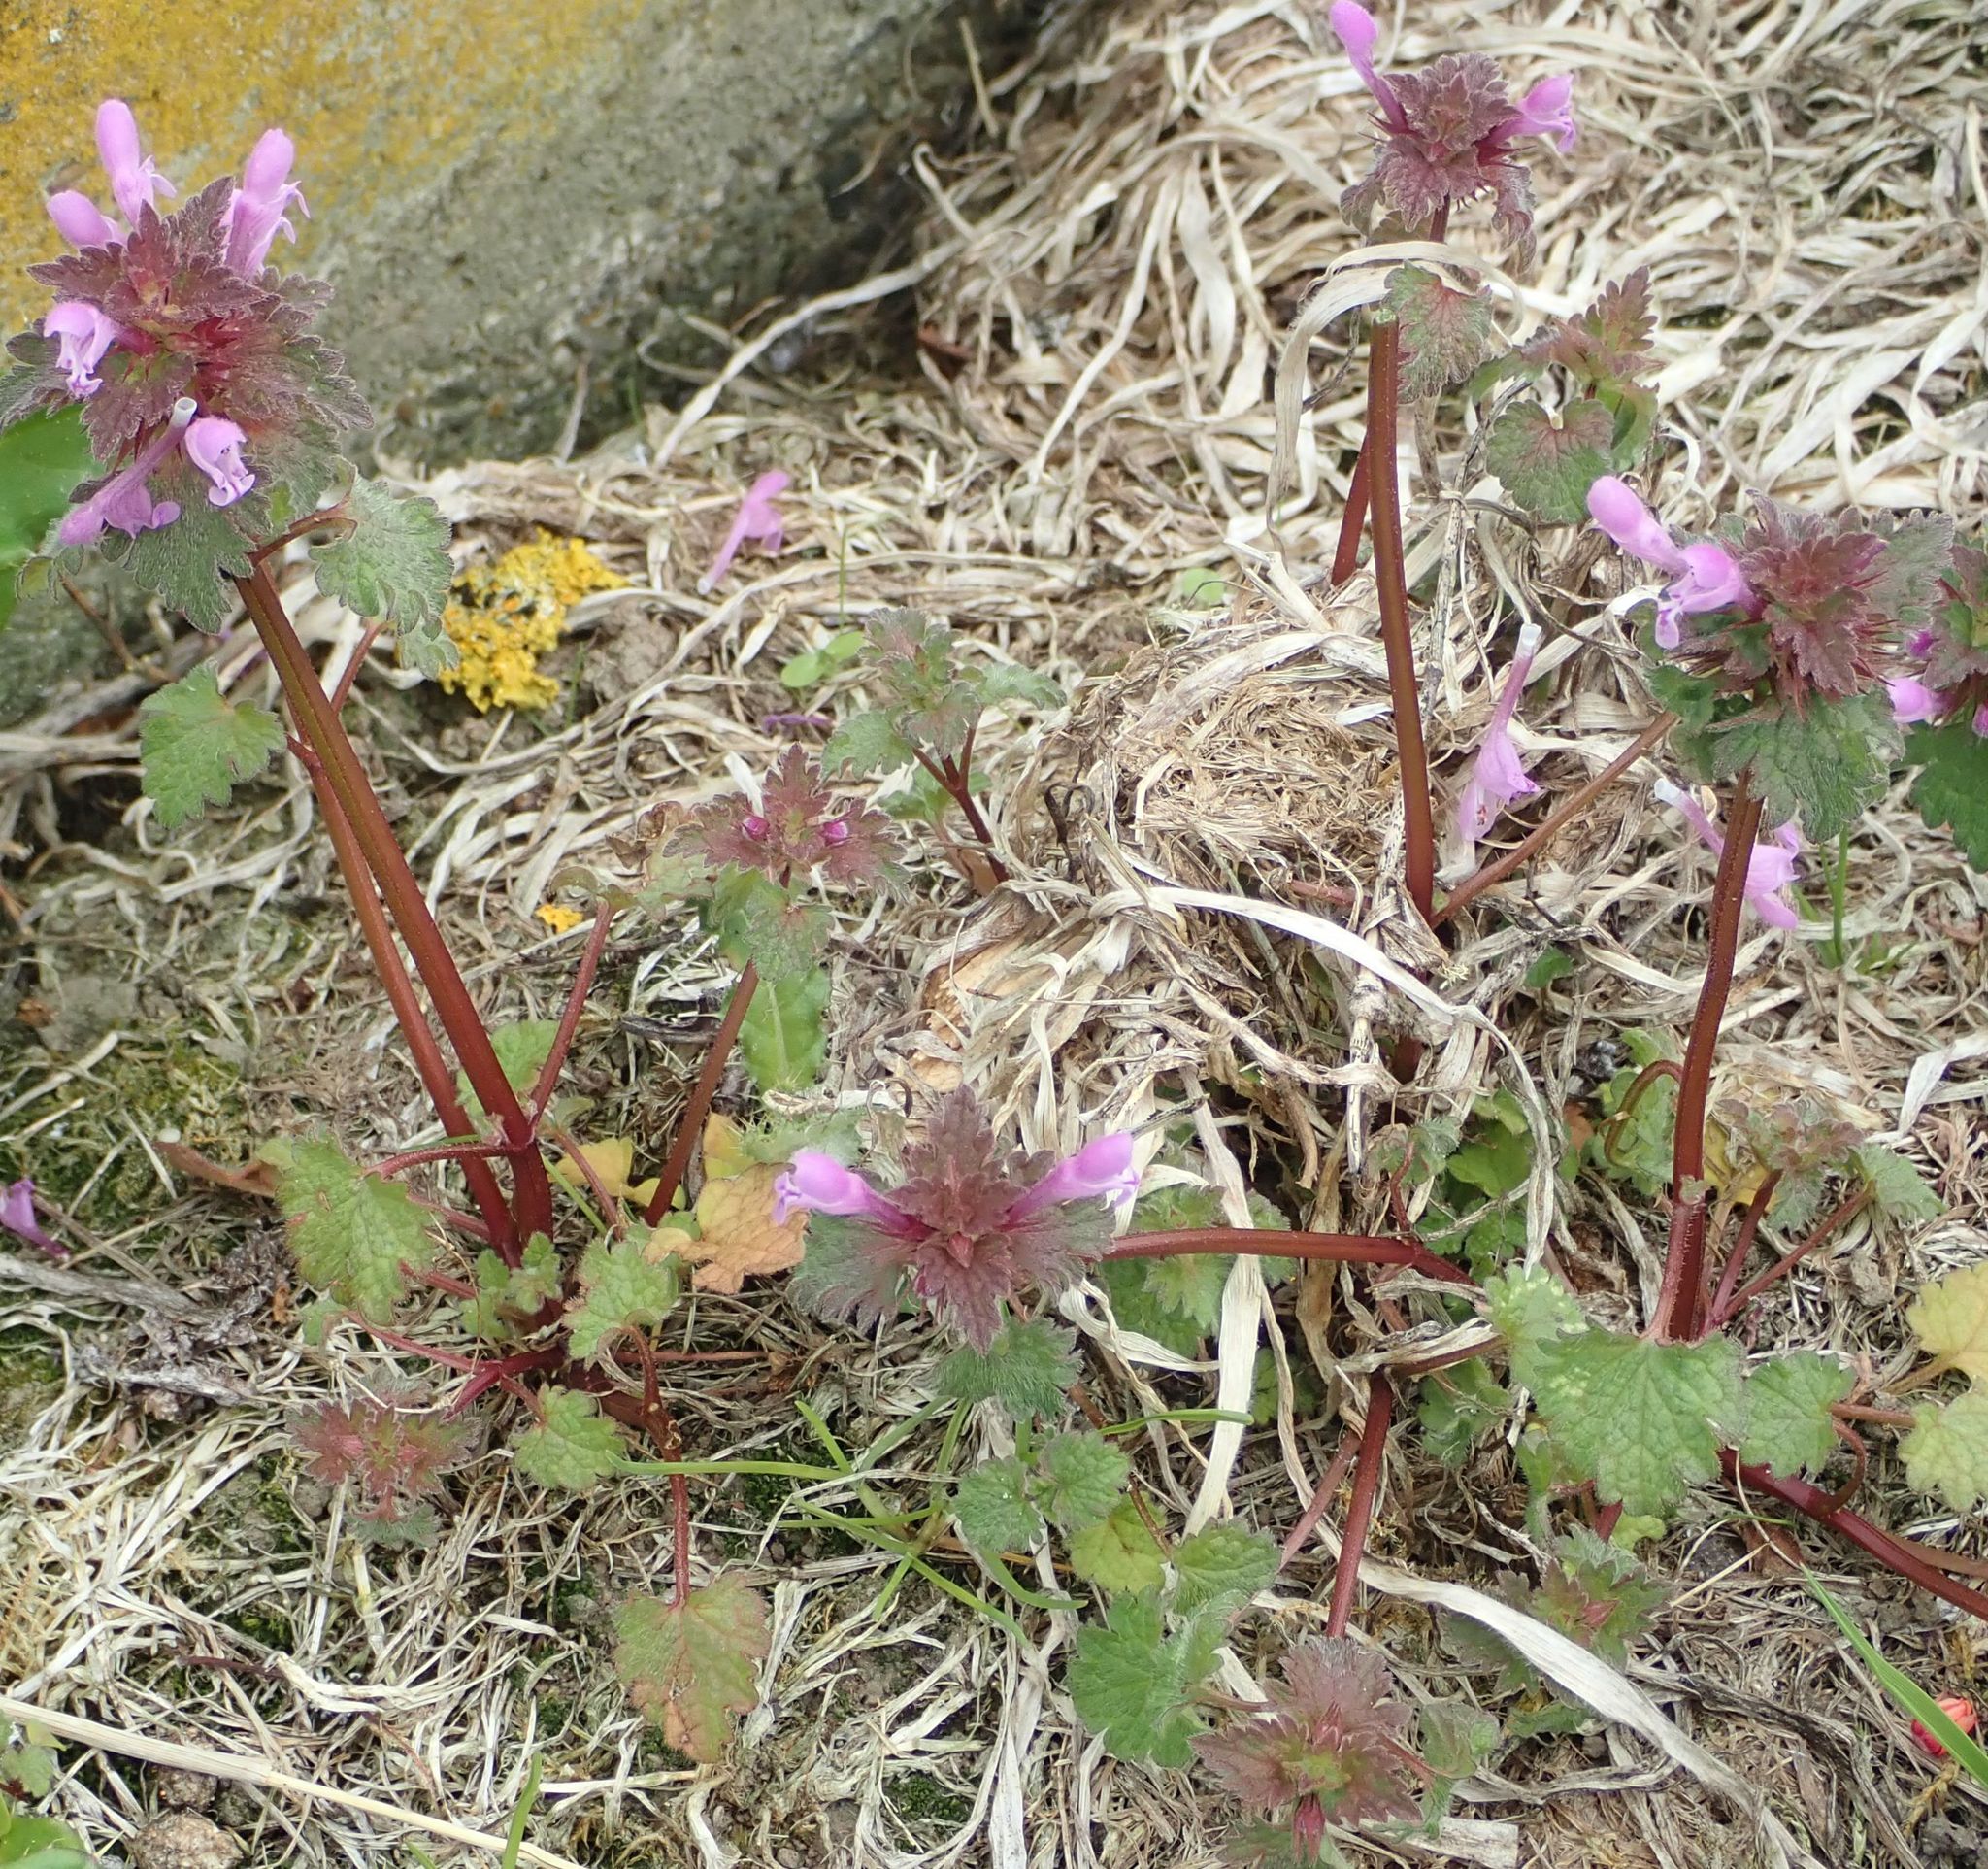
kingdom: Plantae
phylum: Tracheophyta
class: Magnoliopsida
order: Lamiales
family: Lamiaceae
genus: Lamium
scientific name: Lamium purpureum
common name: Red dead-nettle
